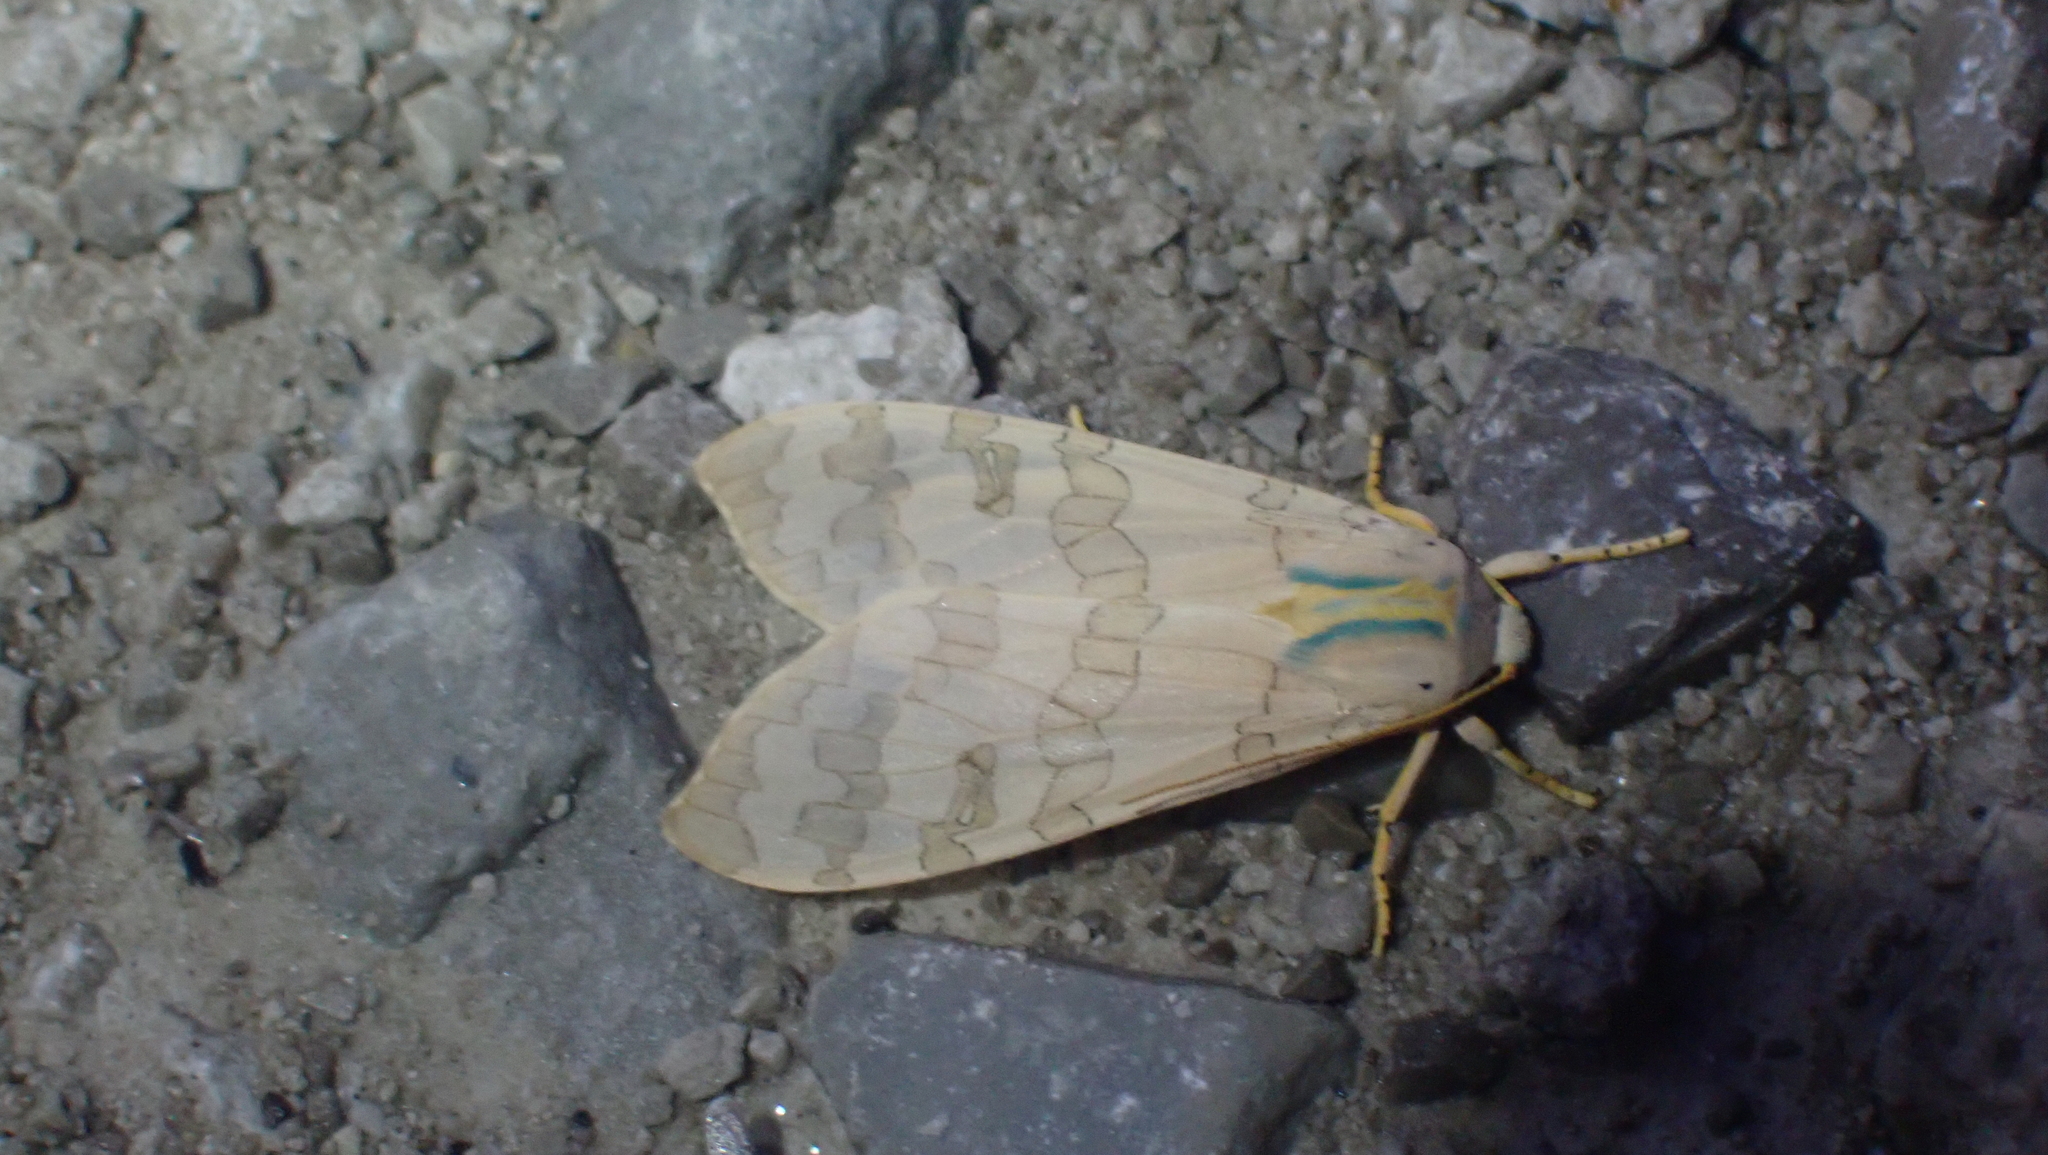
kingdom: Animalia
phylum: Arthropoda
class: Insecta
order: Lepidoptera
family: Erebidae
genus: Halysidota
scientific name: Halysidota
